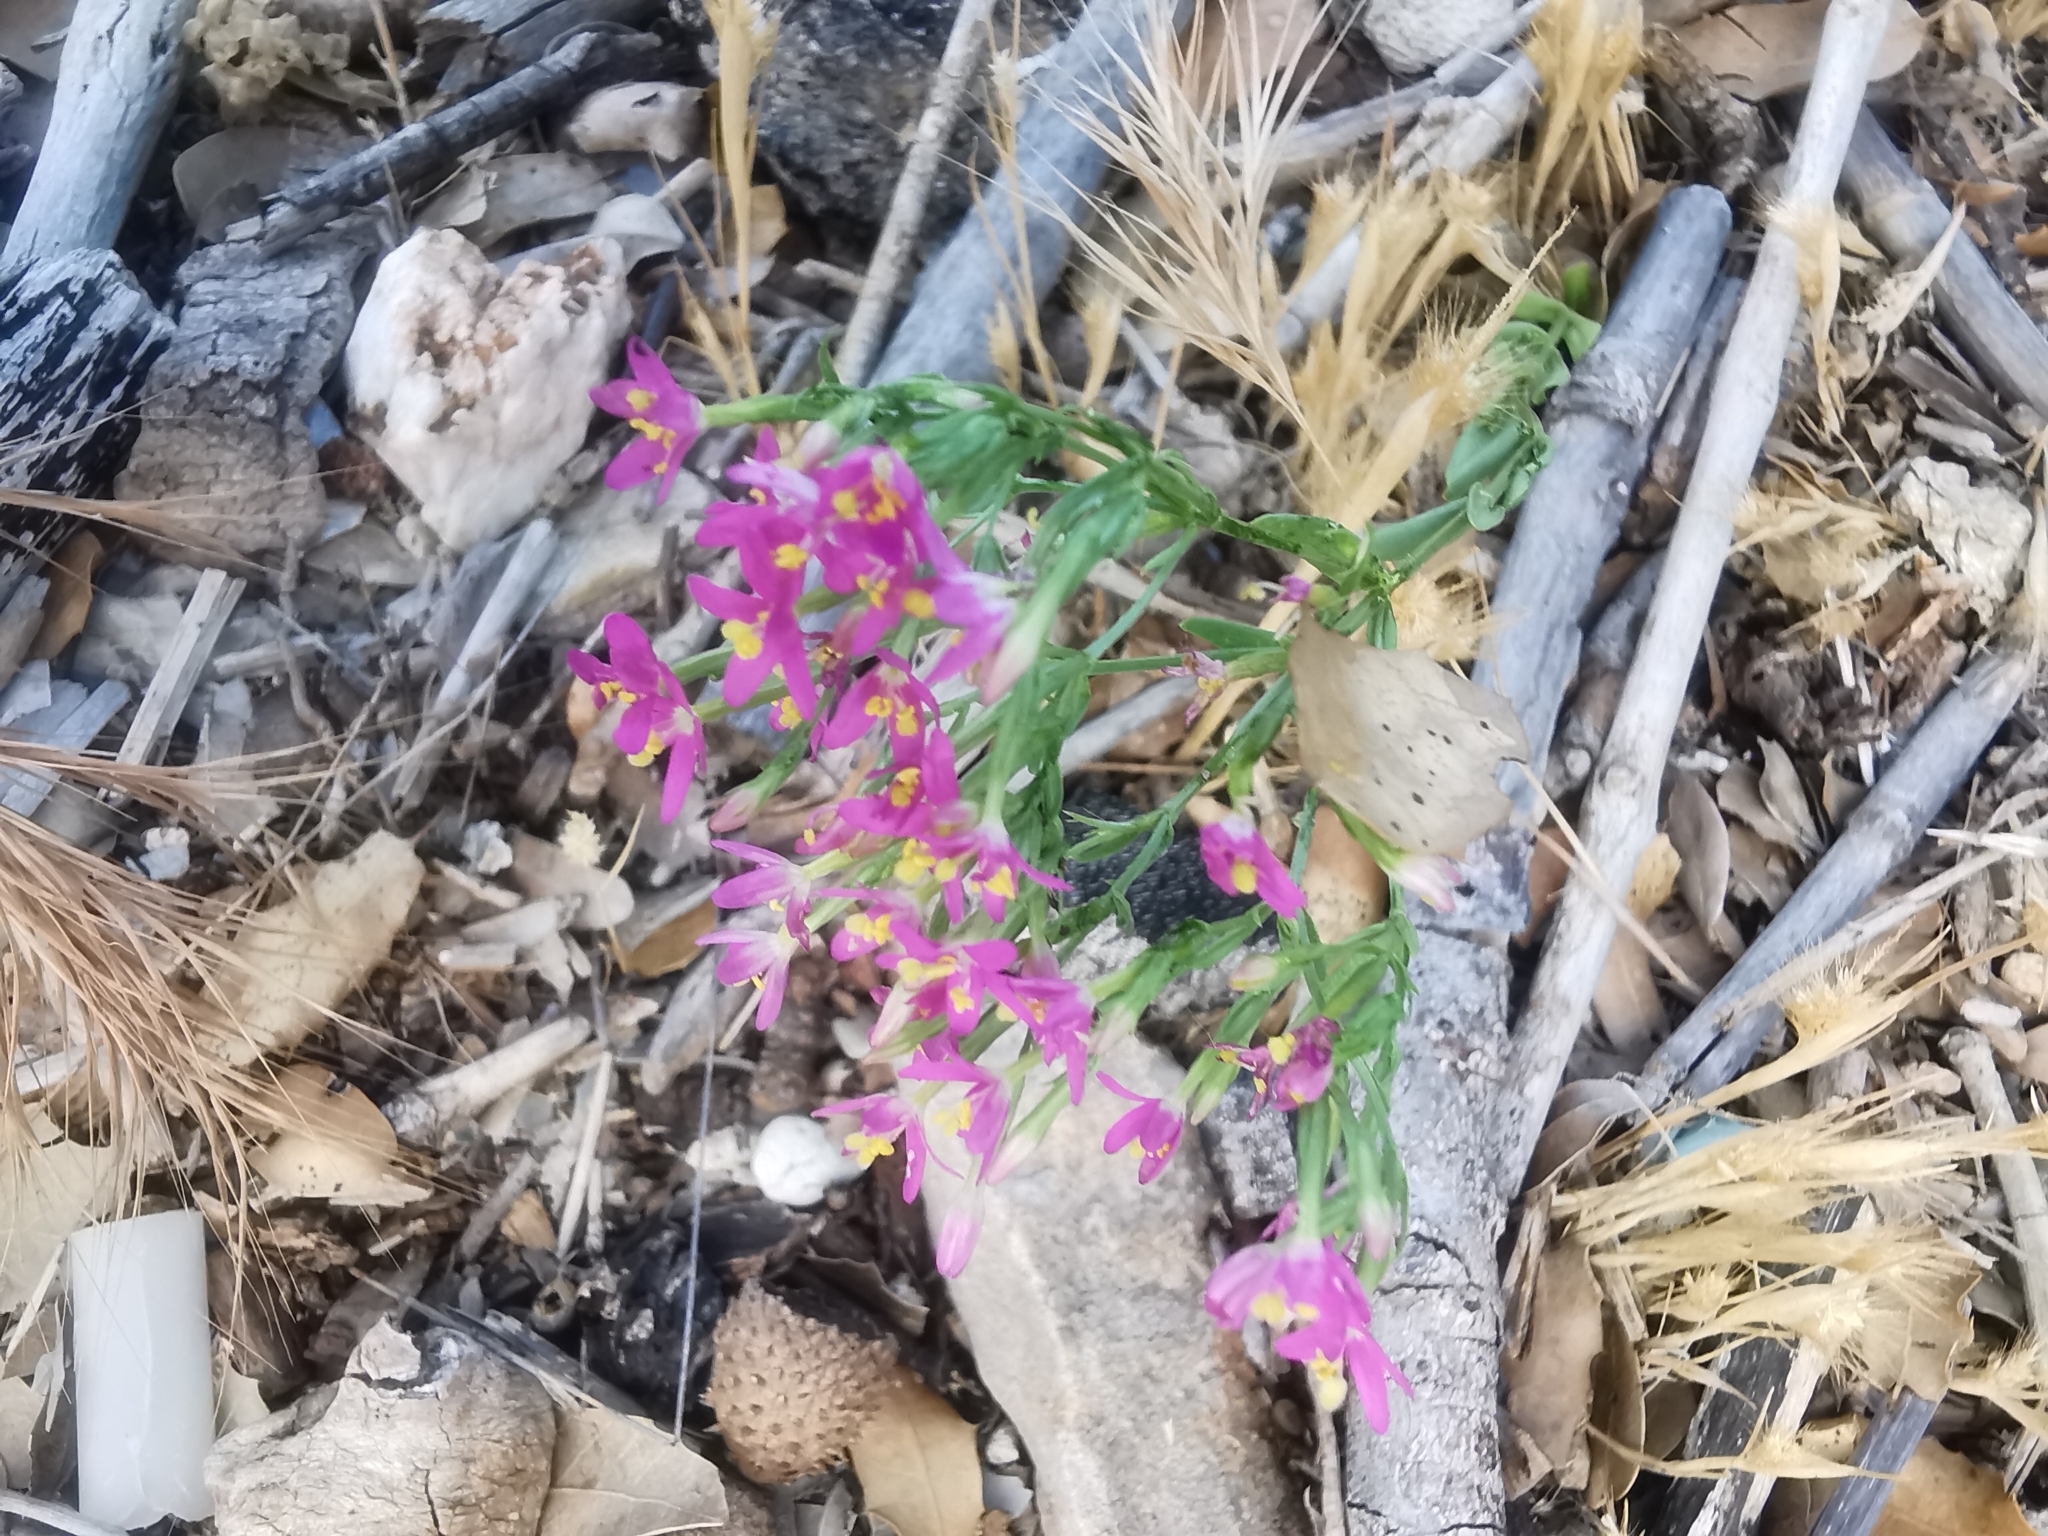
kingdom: Plantae
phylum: Tracheophyta
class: Magnoliopsida
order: Gentianales
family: Gentianaceae
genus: Centaurium
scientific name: Centaurium erythraea
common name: Common centaury
